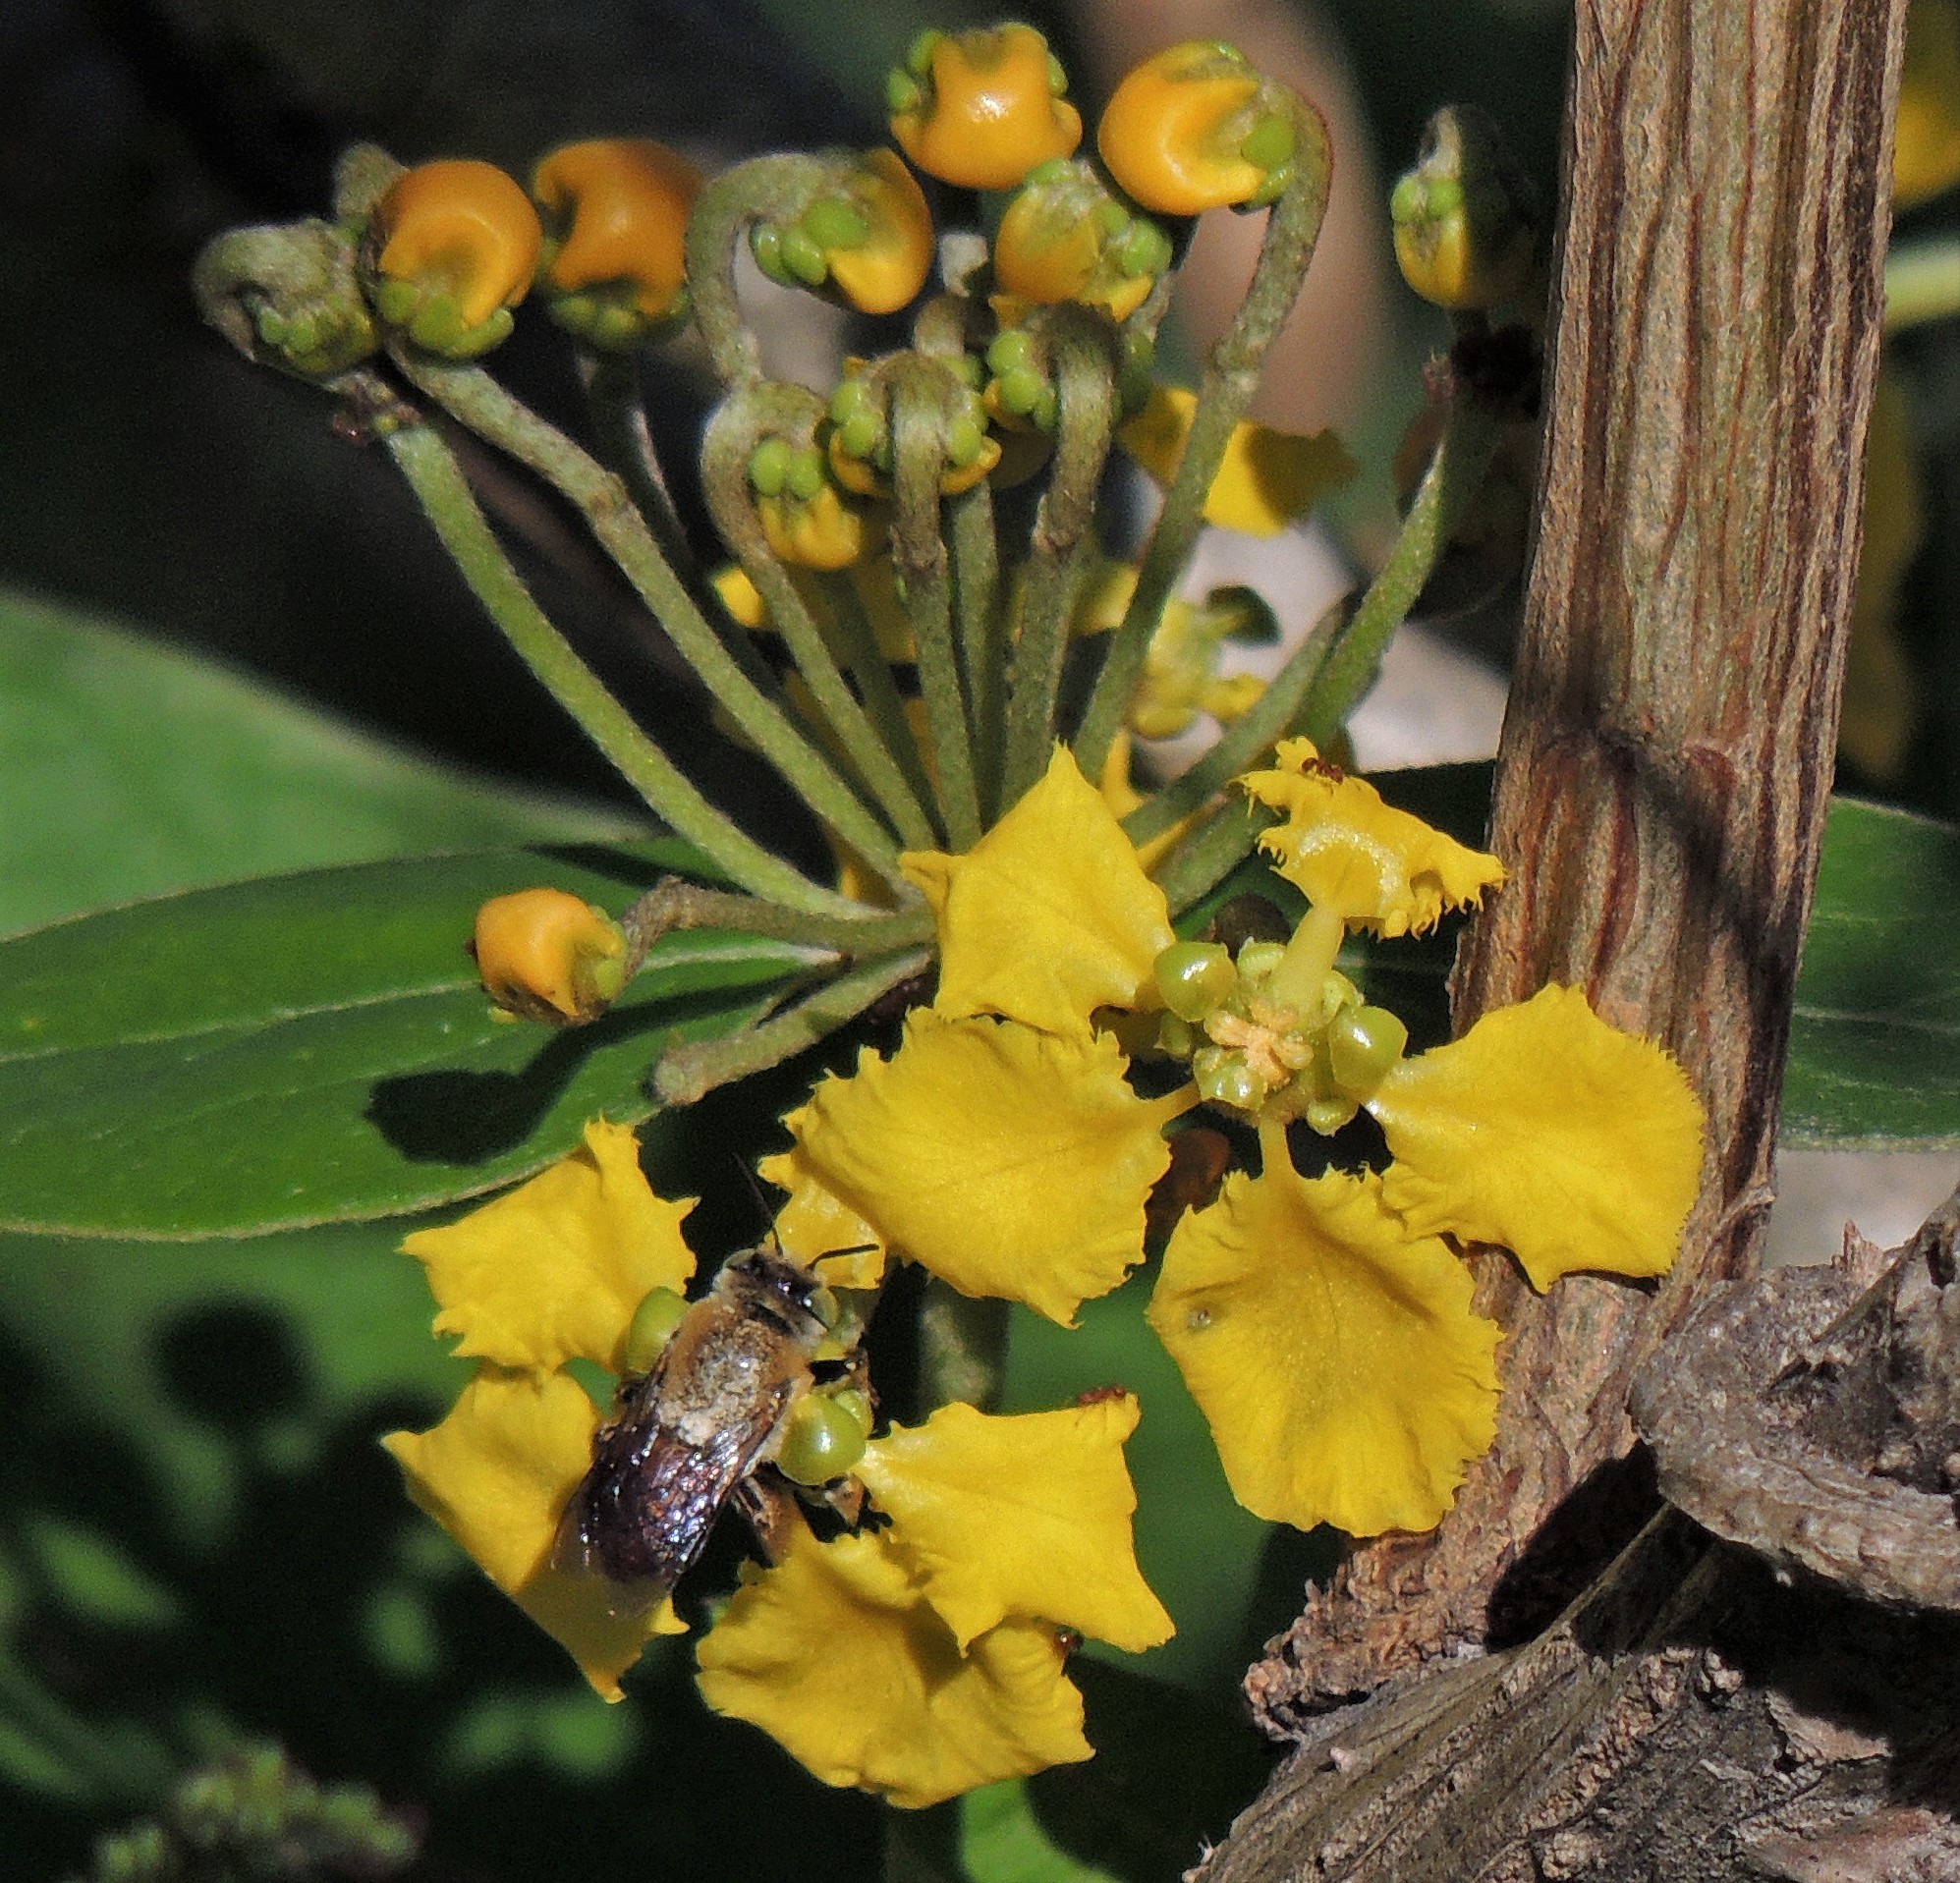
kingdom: Plantae
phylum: Tracheophyta
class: Magnoliopsida
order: Malpighiales
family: Malpighiaceae
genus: Stigmaphyllon
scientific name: Stigmaphyllon bonariense
